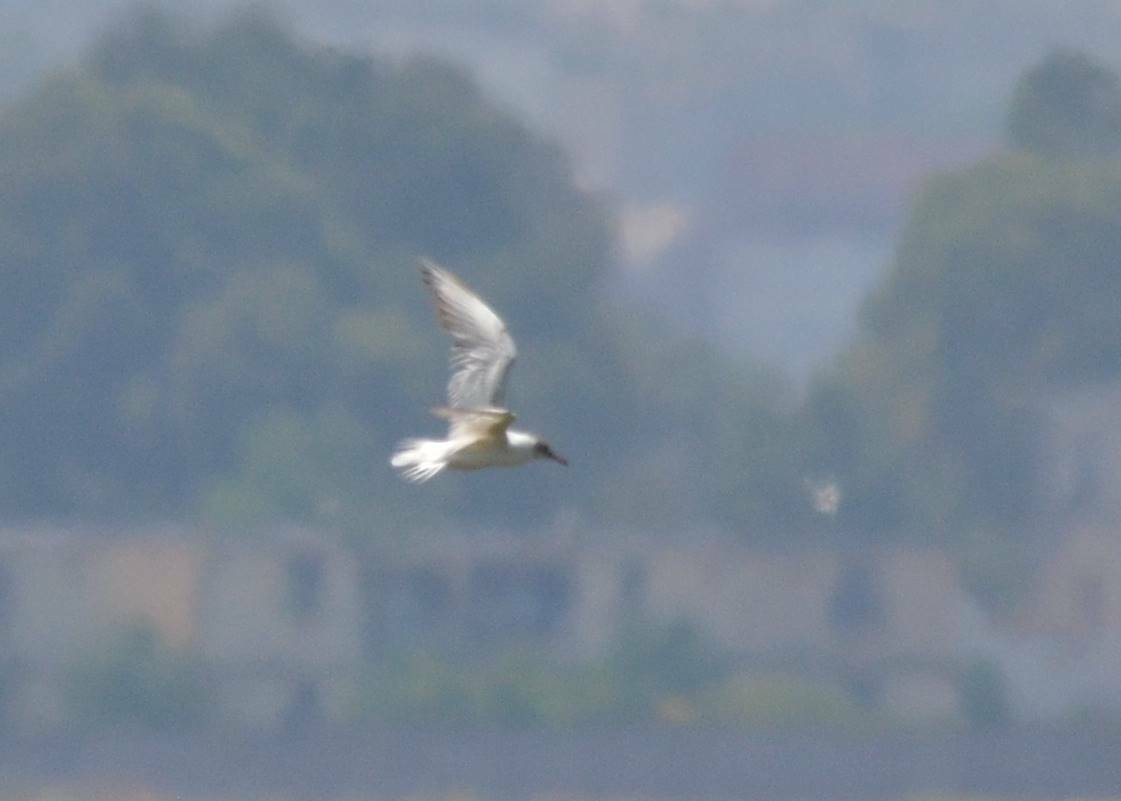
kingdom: Animalia
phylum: Chordata
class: Aves
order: Charadriiformes
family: Laridae
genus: Chroicocephalus
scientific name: Chroicocephalus ridibundus
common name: Black-headed gull
